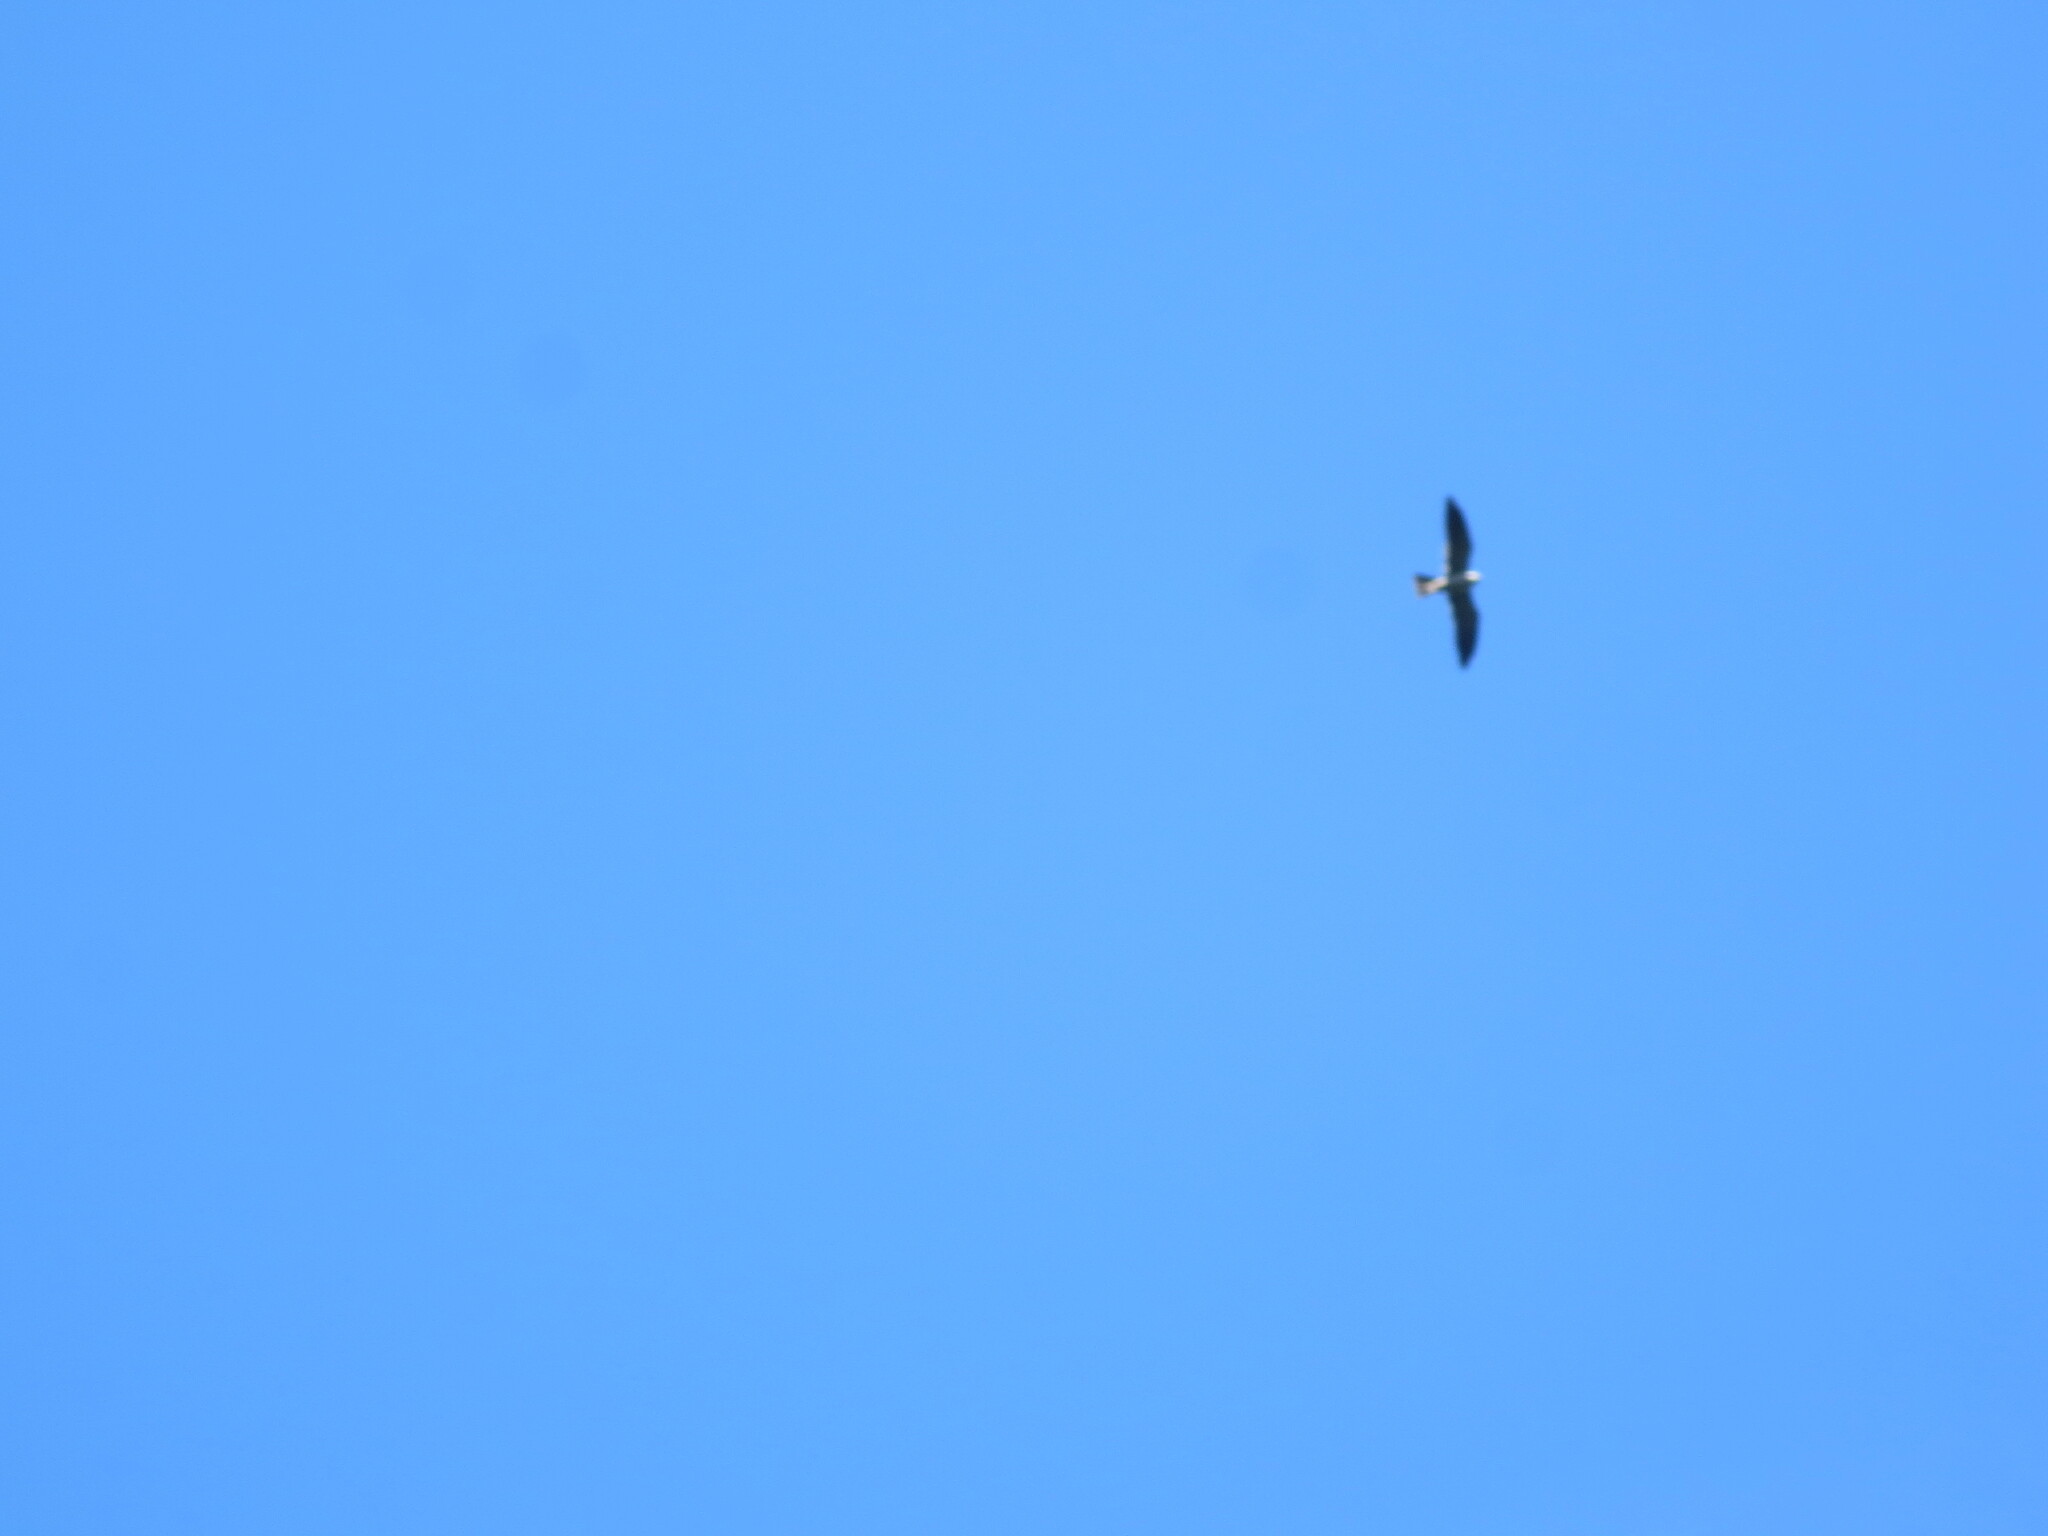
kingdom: Animalia
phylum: Chordata
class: Aves
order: Accipitriformes
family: Accipitridae
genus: Ictinia
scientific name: Ictinia mississippiensis
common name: Mississippi kite
